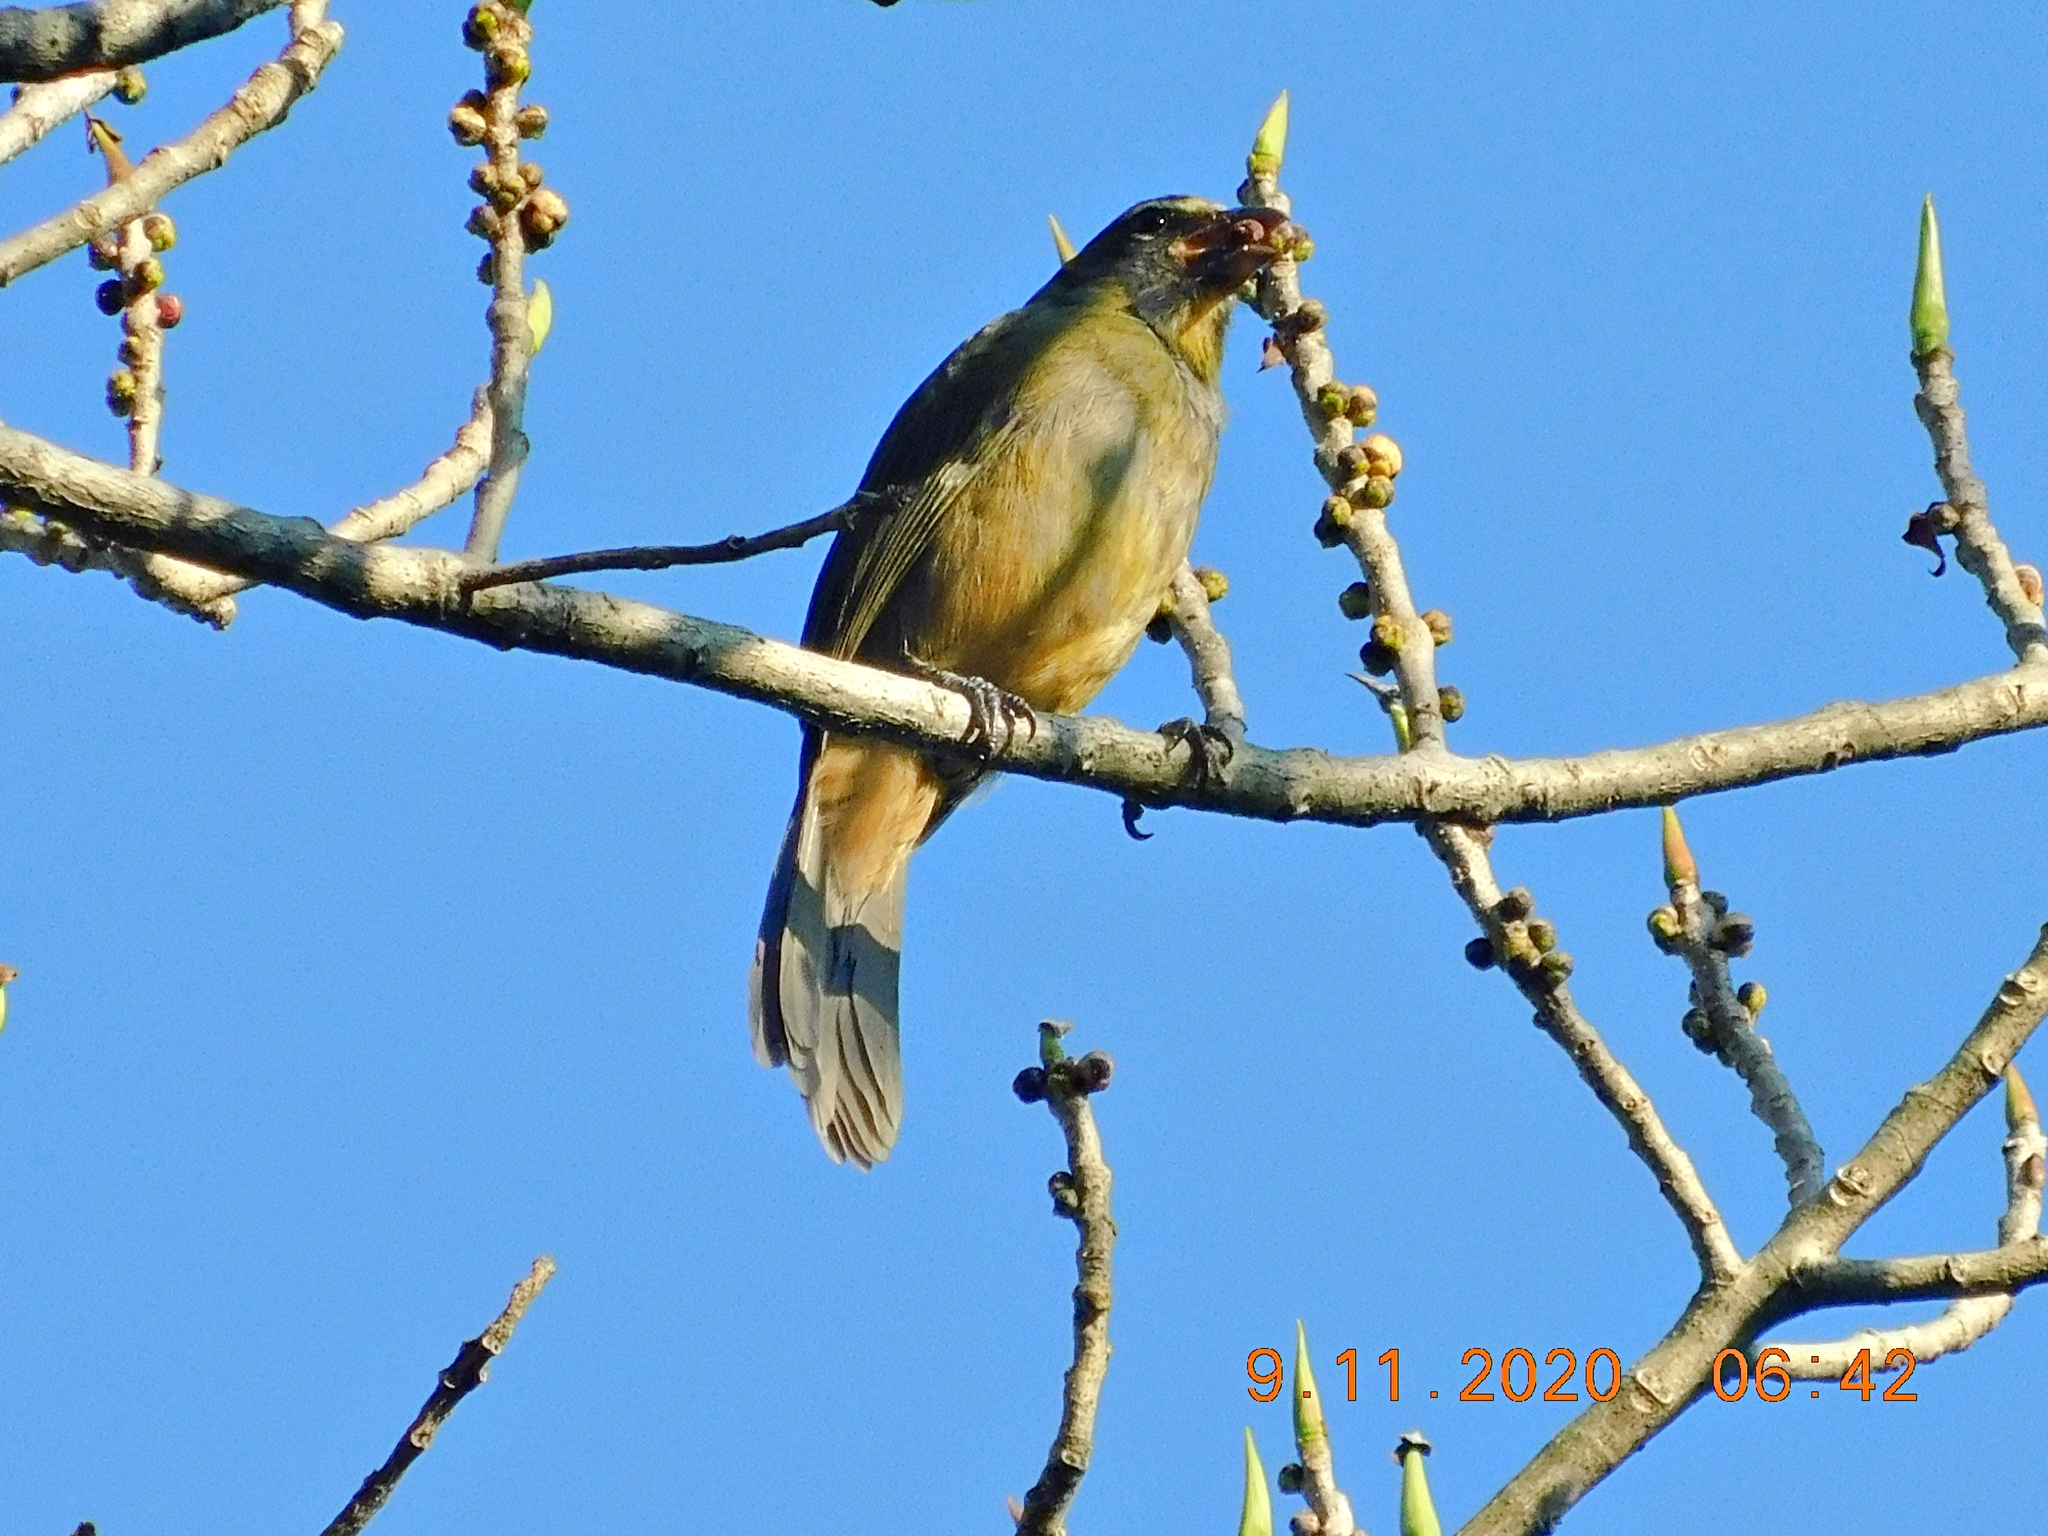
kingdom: Animalia
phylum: Chordata
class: Aves
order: Passeriformes
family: Thraupidae
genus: Saltator
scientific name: Saltator grandis
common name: Cinnamon-bellied saltator
